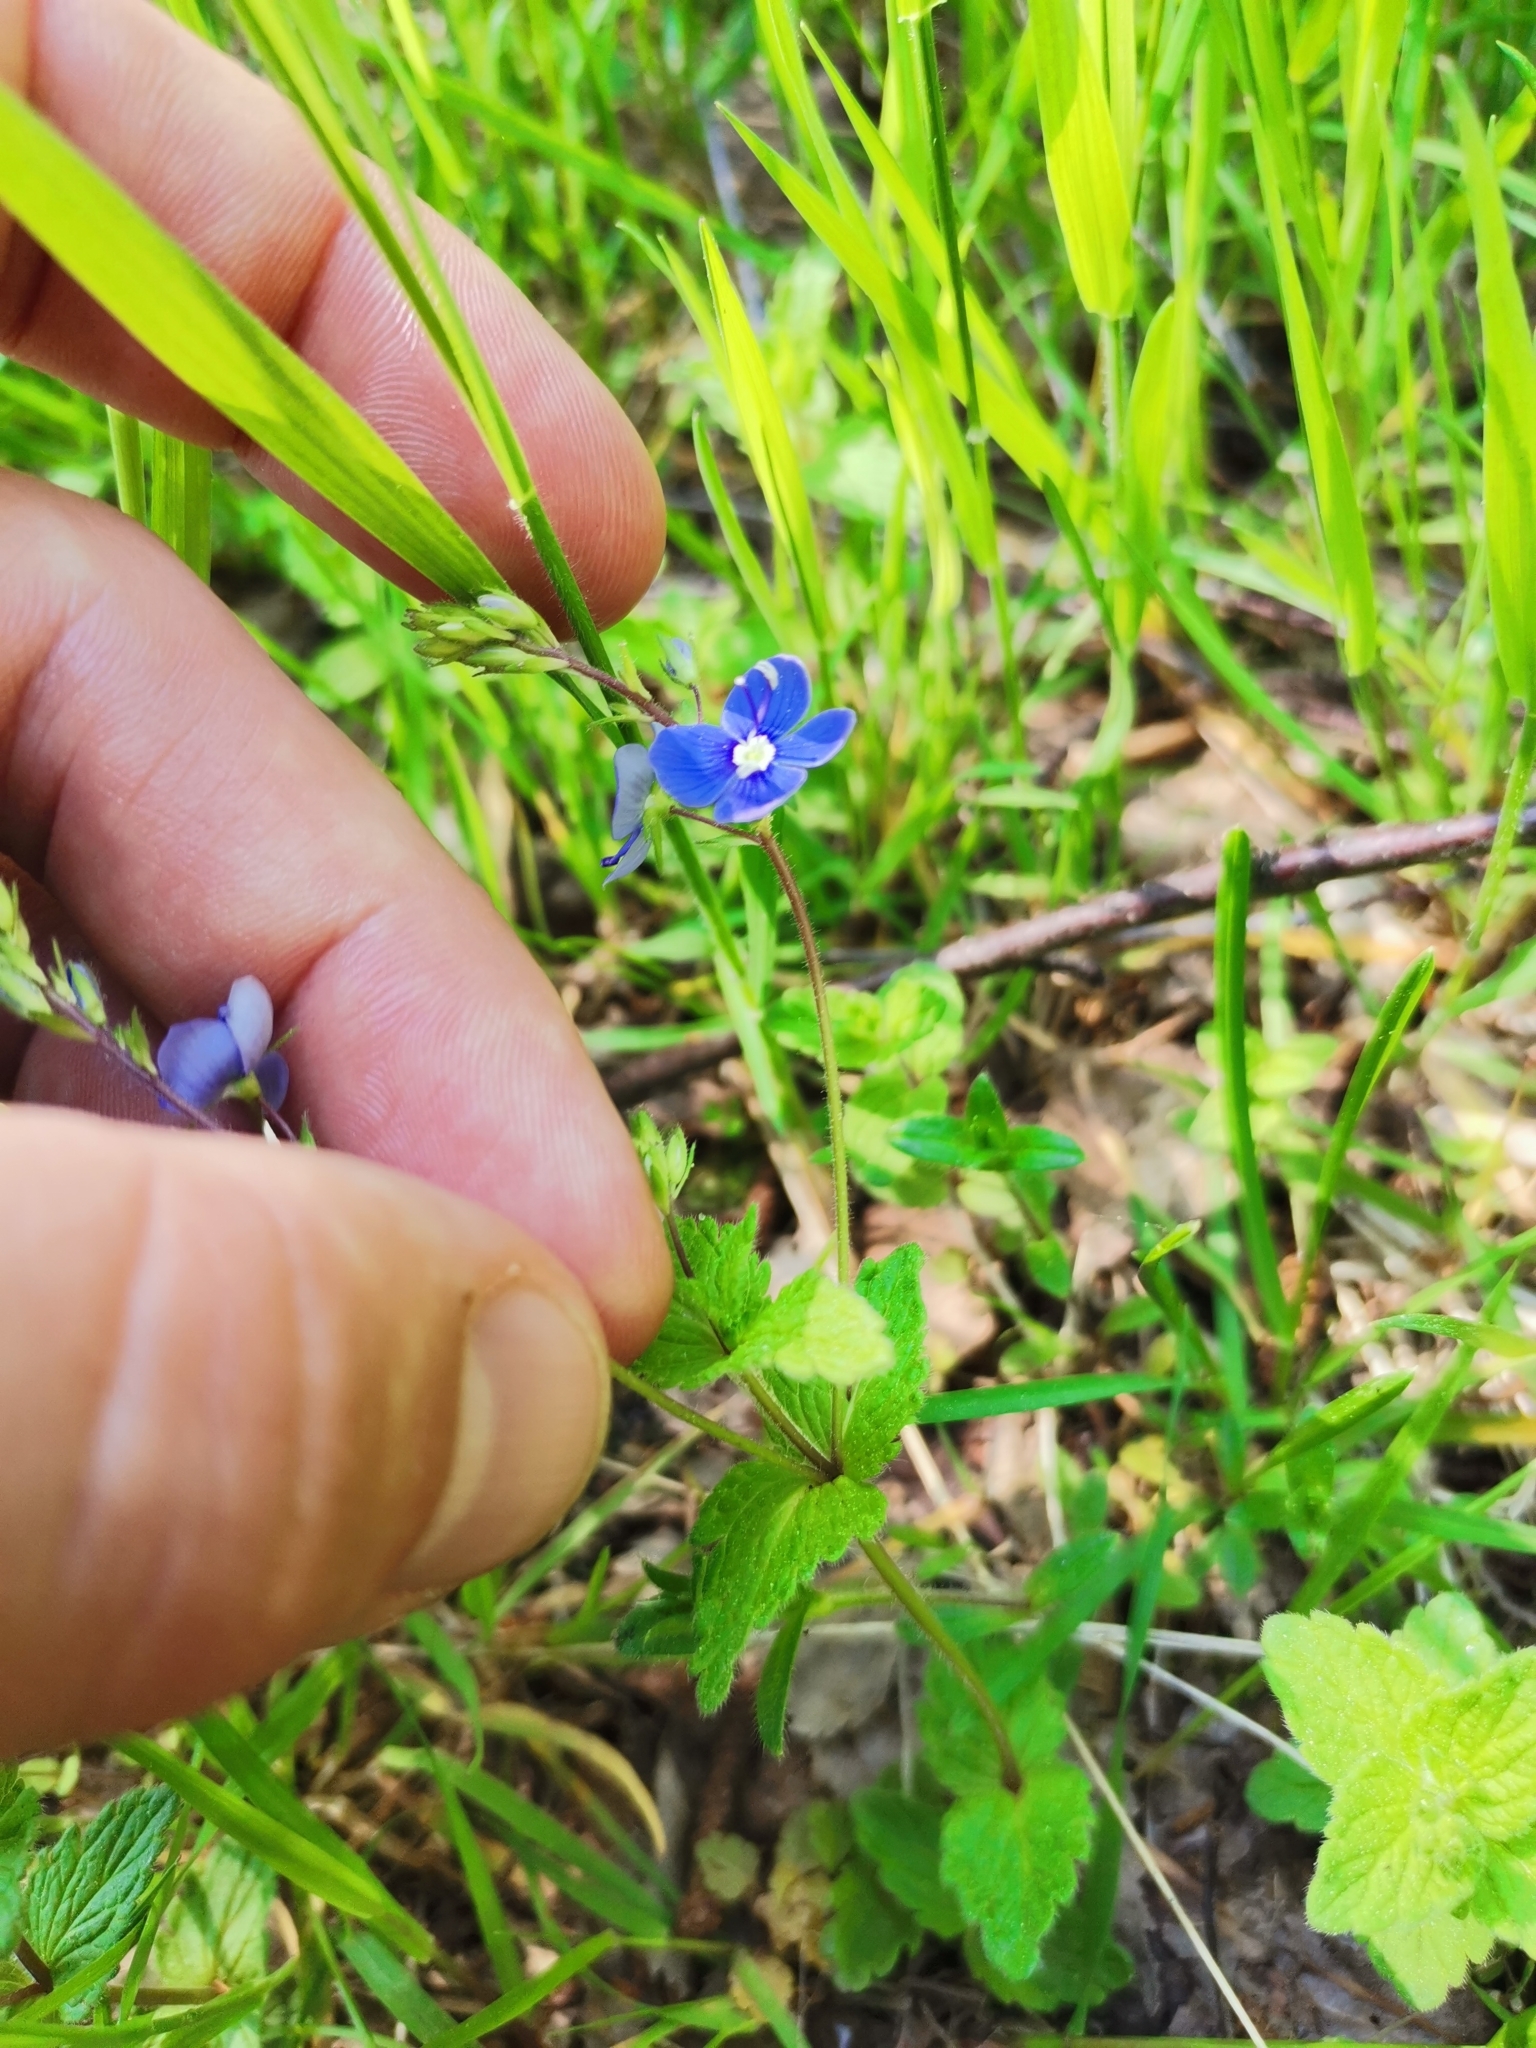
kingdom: Plantae
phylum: Tracheophyta
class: Magnoliopsida
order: Lamiales
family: Plantaginaceae
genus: Veronica
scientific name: Veronica chamaedrys
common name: Germander speedwell
